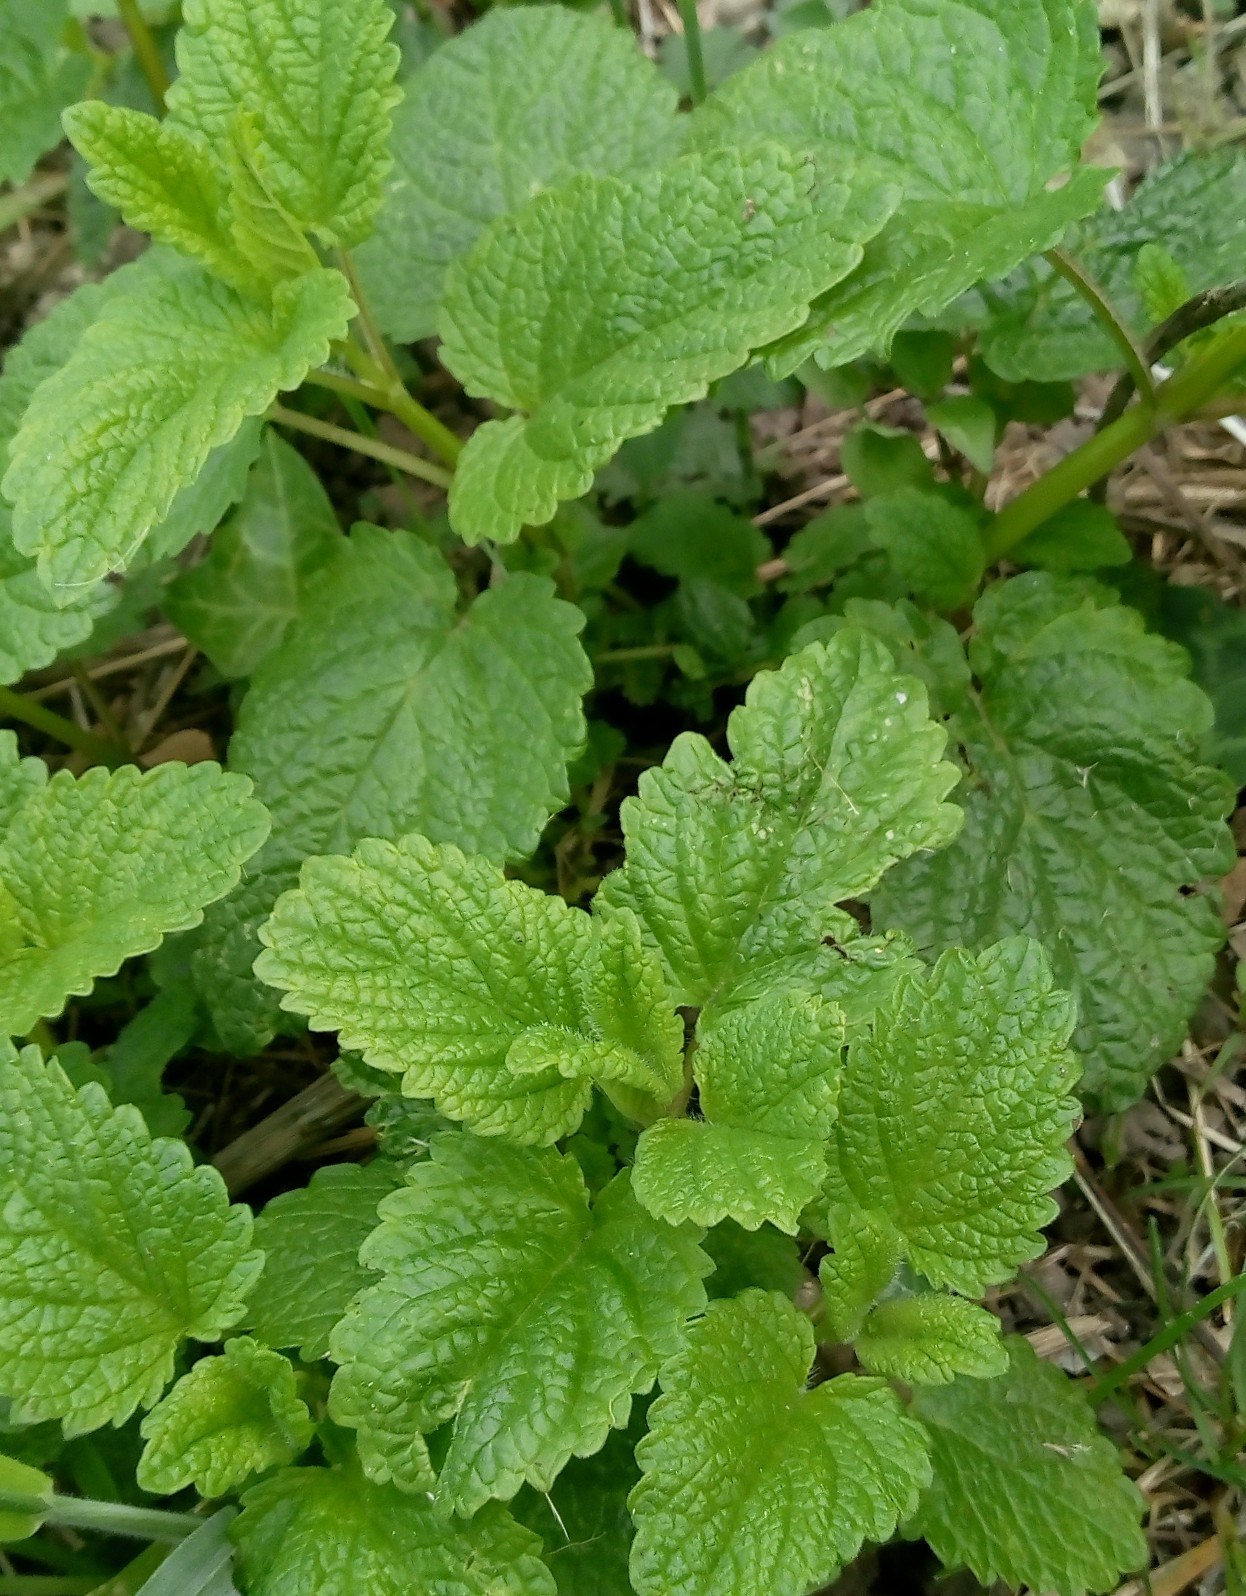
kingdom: Plantae
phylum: Tracheophyta
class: Magnoliopsida
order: Lamiales
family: Lamiaceae
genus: Melissa
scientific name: Melissa officinalis
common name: Balm
